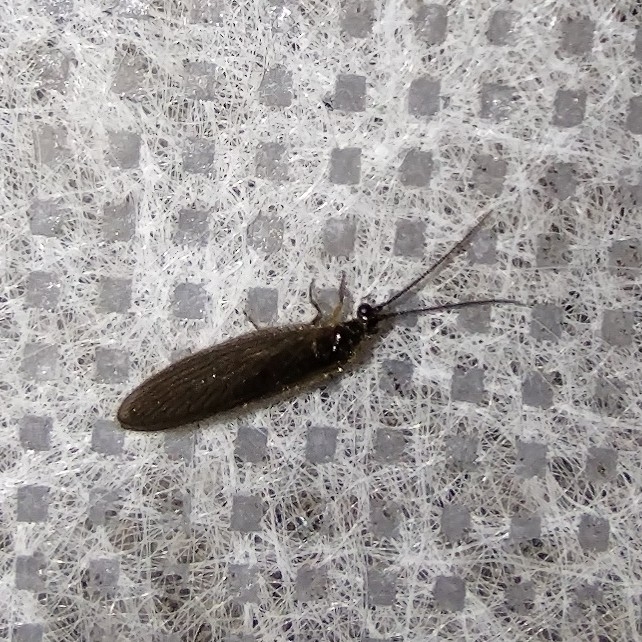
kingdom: Animalia
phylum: Arthropoda
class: Insecta
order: Neuroptera
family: Sisyridae
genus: Sisyra
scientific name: Sisyra nigra
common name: Black spongillafly
